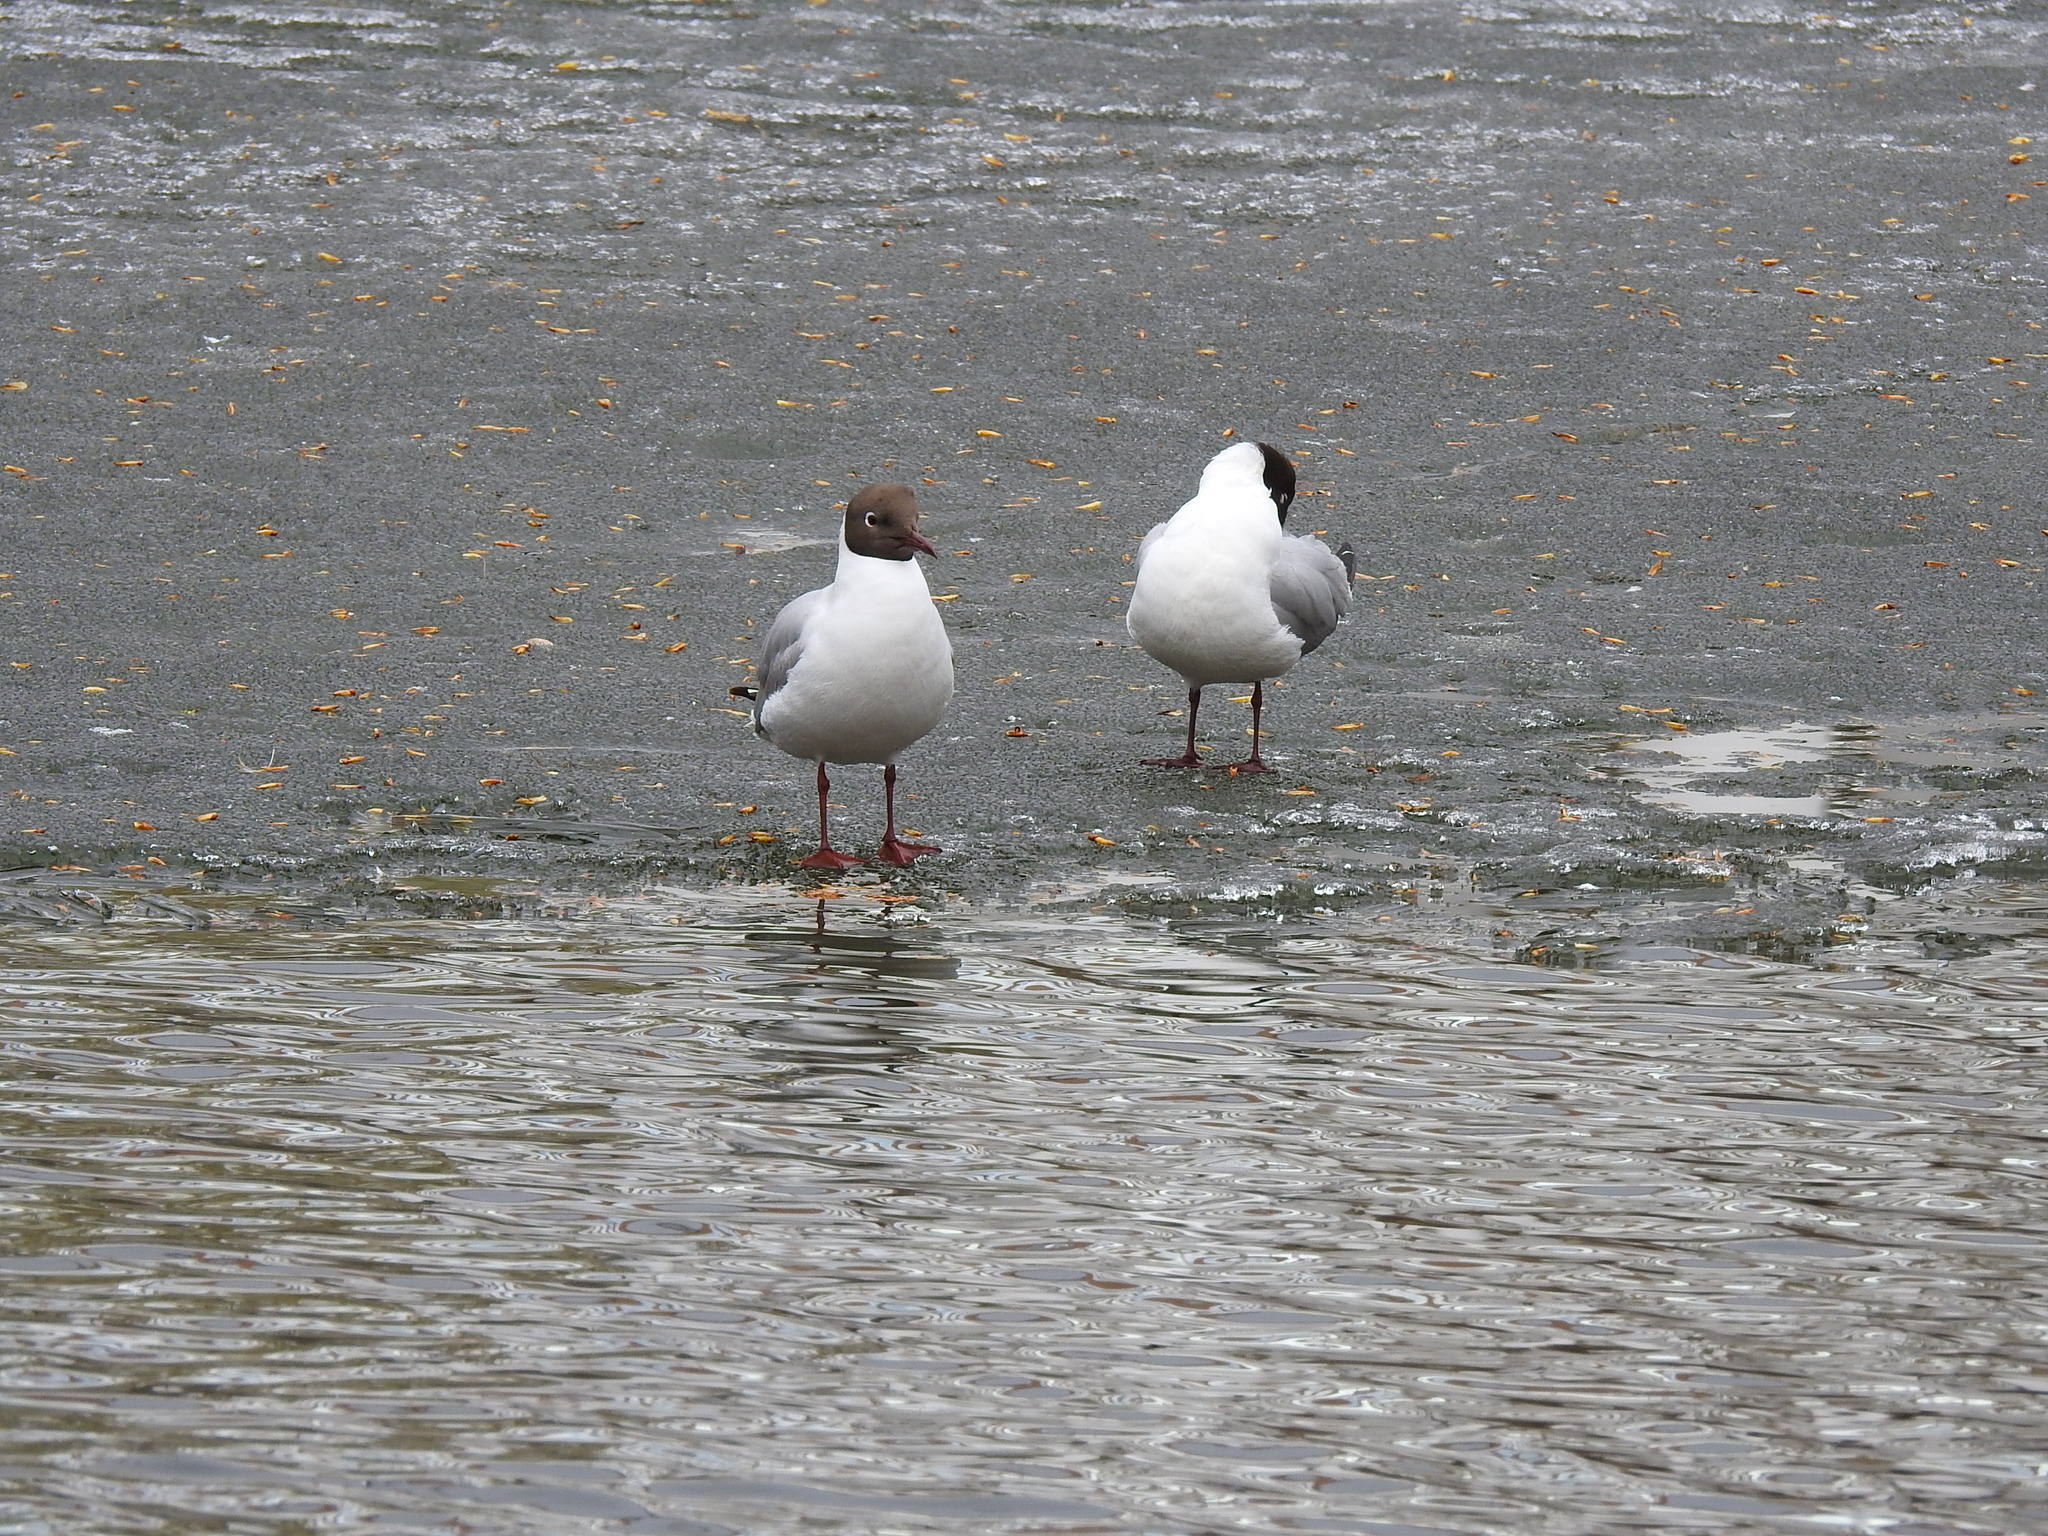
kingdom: Animalia
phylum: Chordata
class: Aves
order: Charadriiformes
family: Laridae
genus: Chroicocephalus
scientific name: Chroicocephalus ridibundus
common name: Black-headed gull
